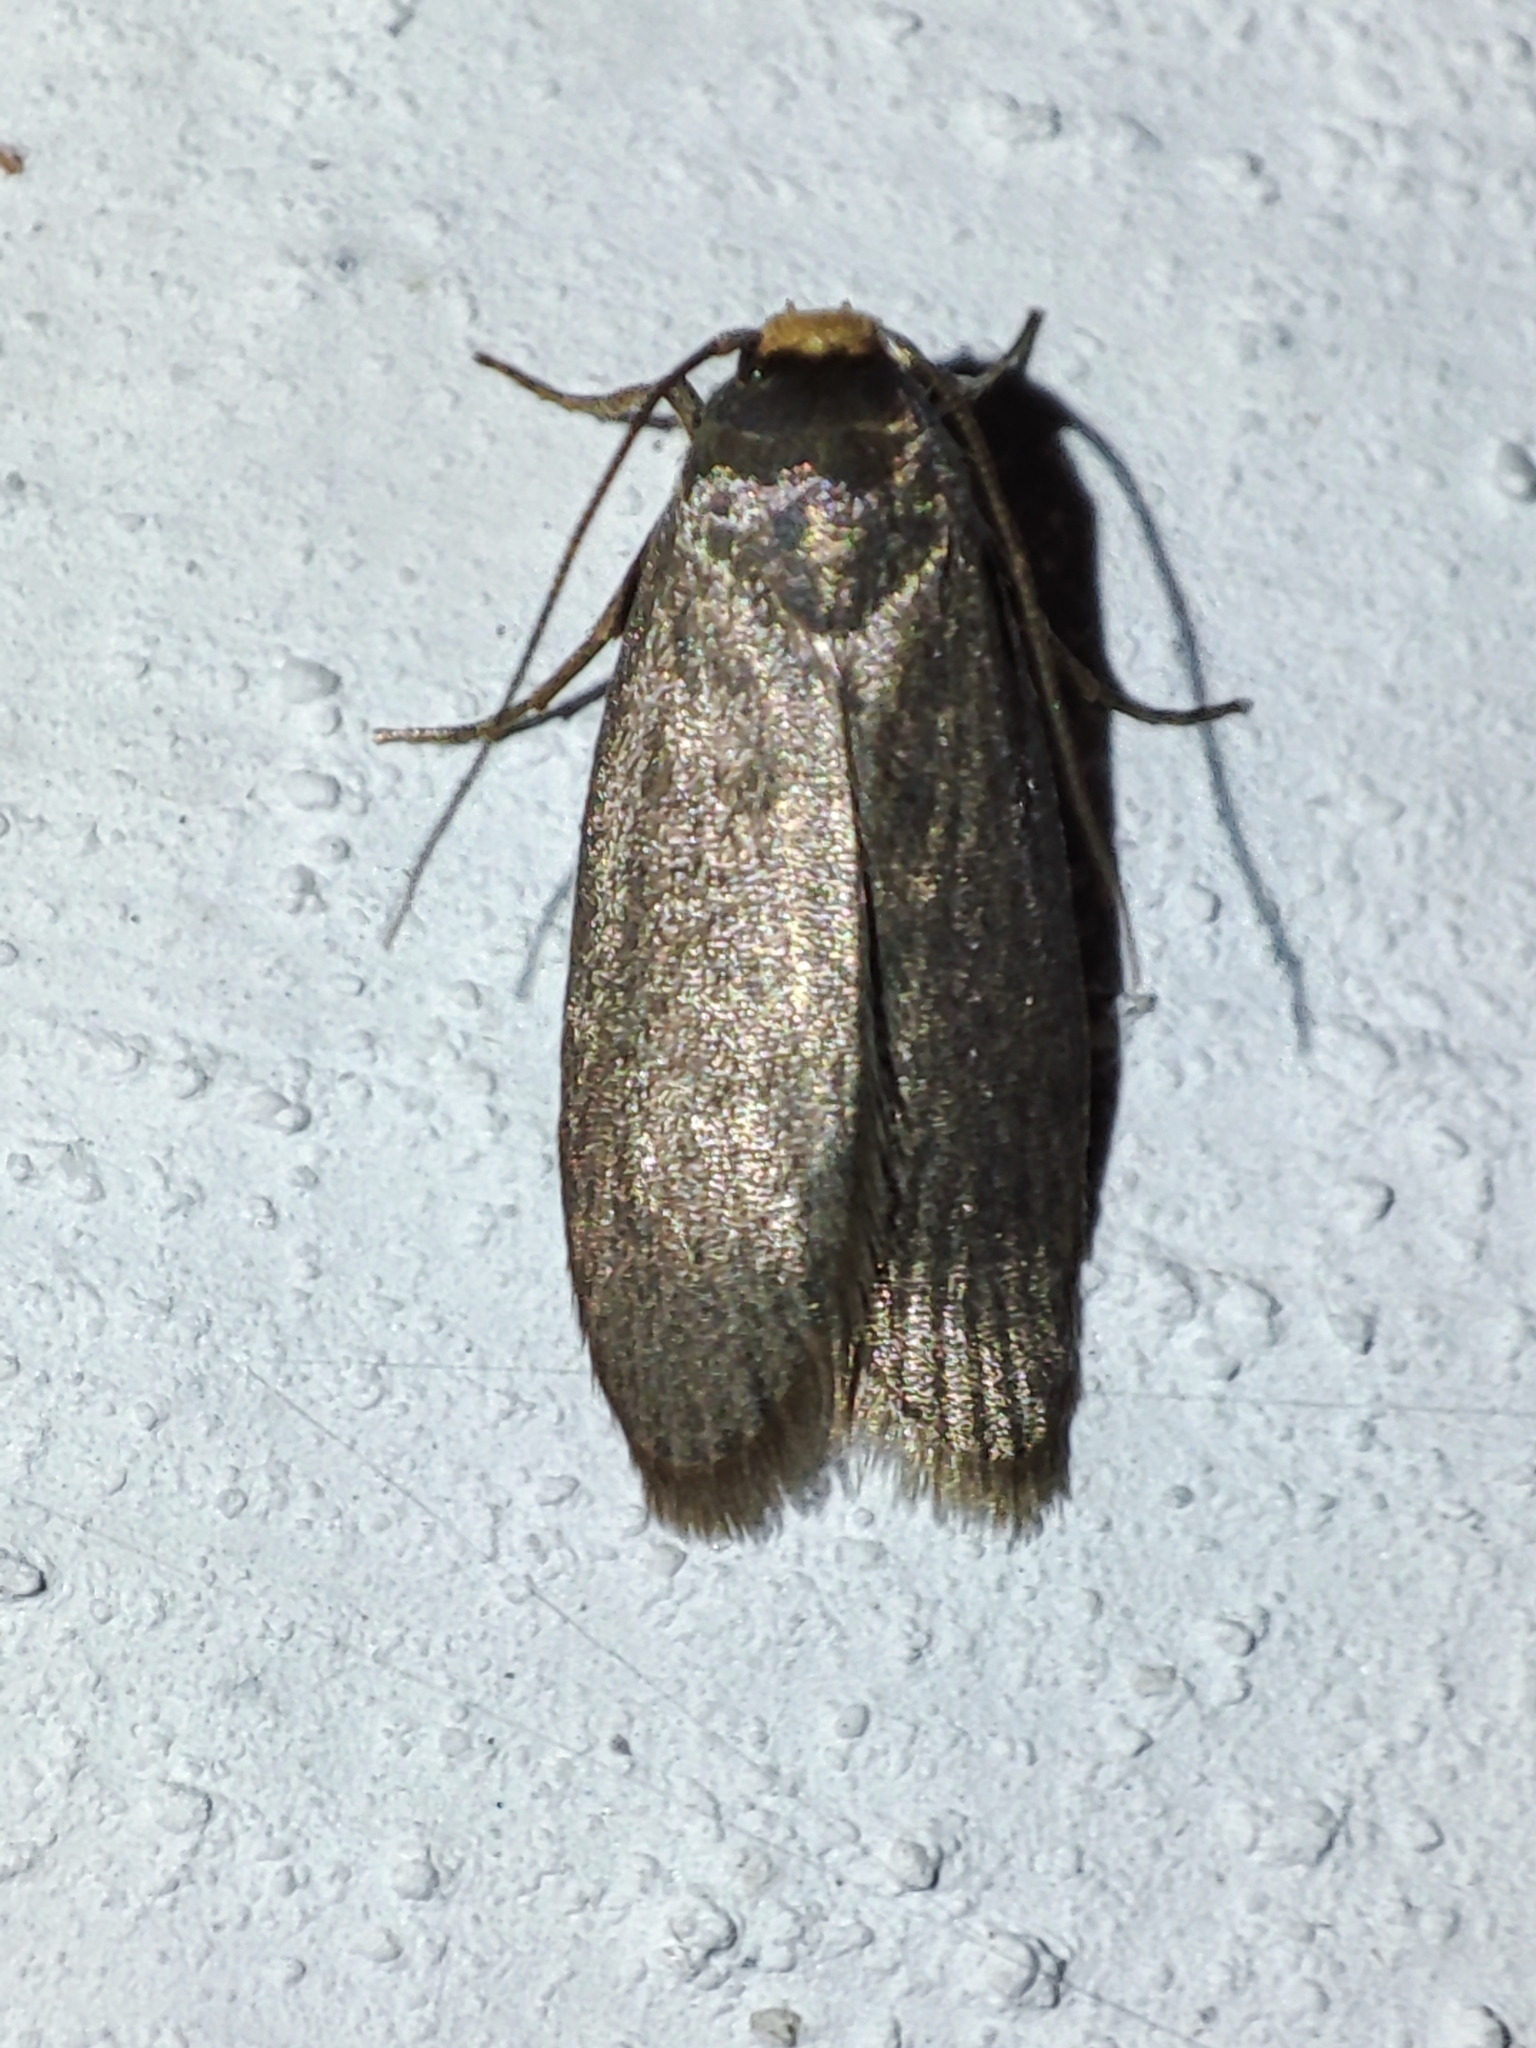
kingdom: Animalia
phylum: Arthropoda
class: Insecta
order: Lepidoptera
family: Pyralidae
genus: Achroia
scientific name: Achroia grisella
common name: Lesser wax moth
